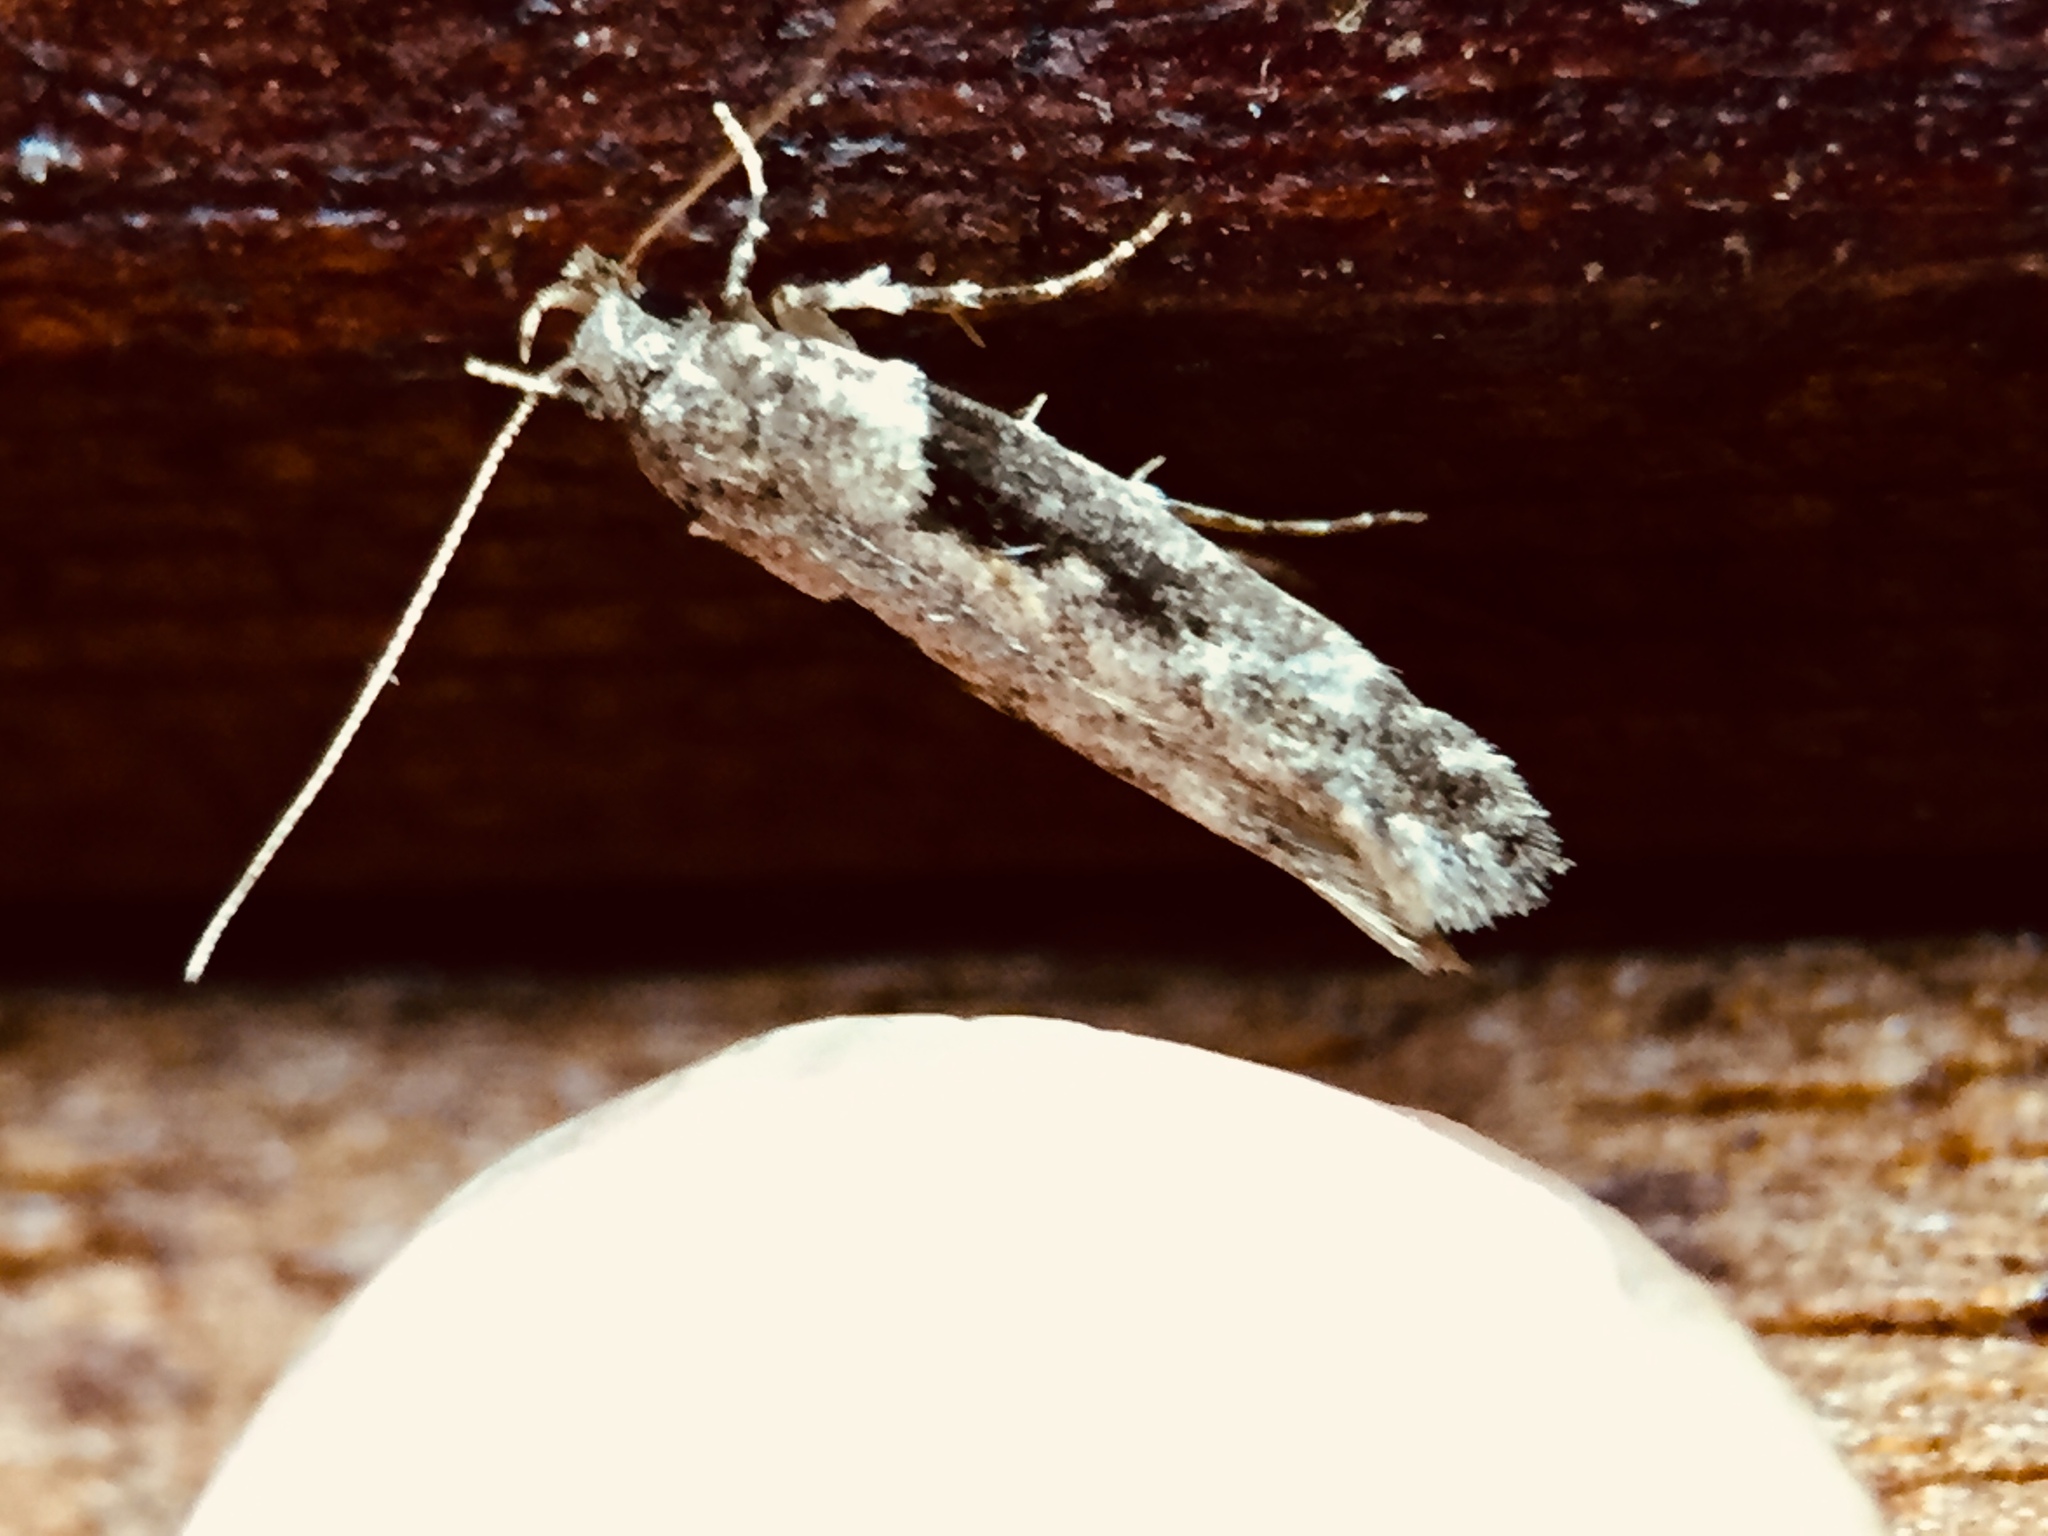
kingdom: Animalia
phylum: Arthropoda
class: Insecta
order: Lepidoptera
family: Gelechiidae
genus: Symmetrischema
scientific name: Symmetrischema tangolias
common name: Moth
